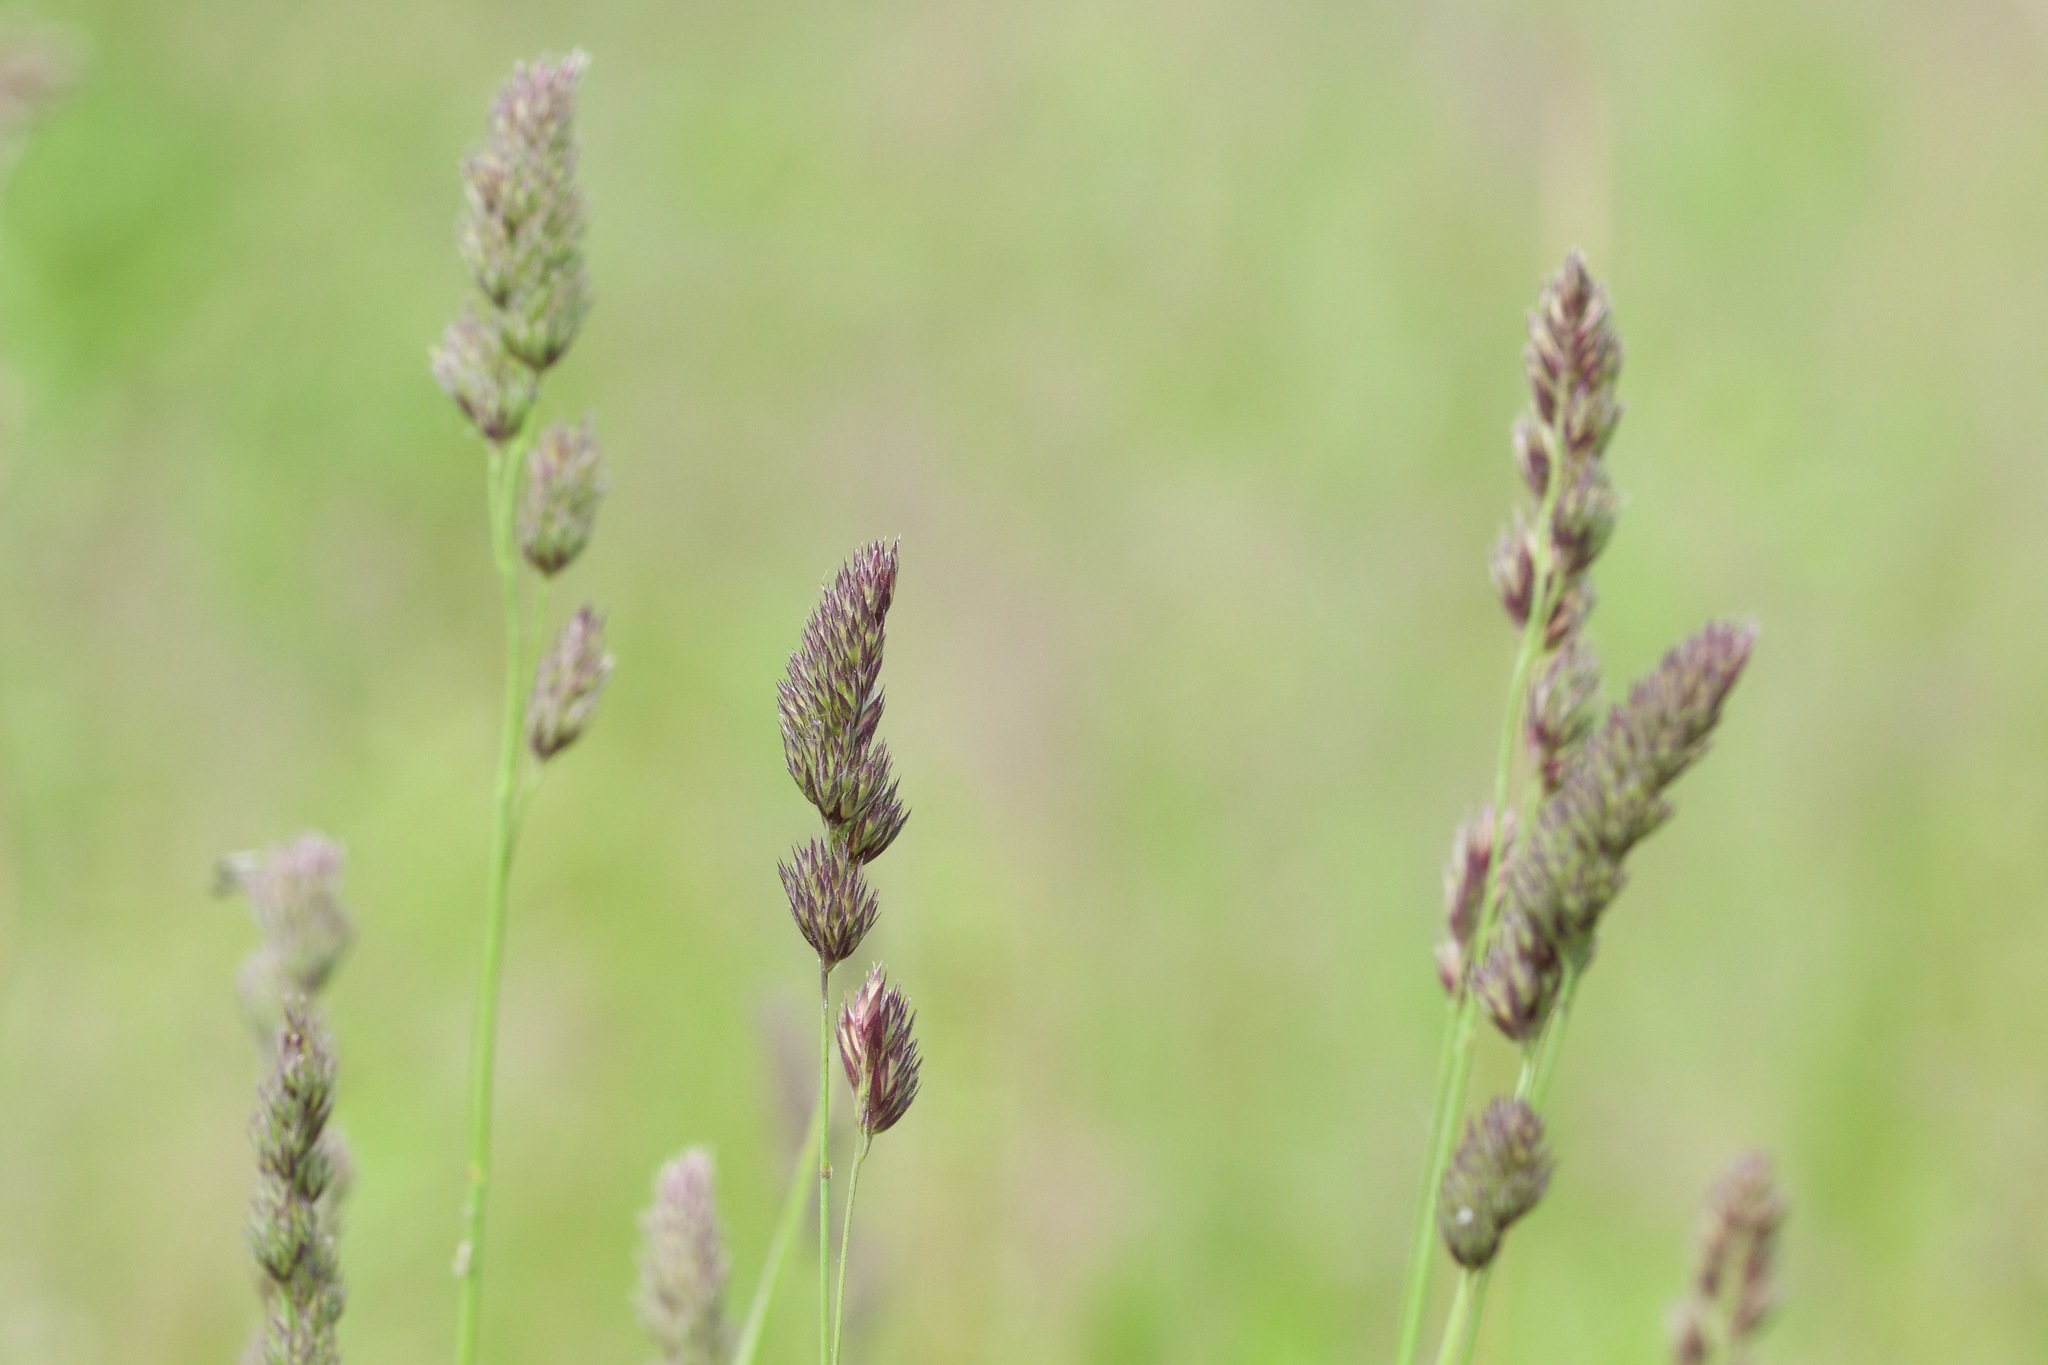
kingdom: Plantae
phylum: Tracheophyta
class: Liliopsida
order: Poales
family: Poaceae
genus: Dactylis
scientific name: Dactylis glomerata
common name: Orchardgrass
